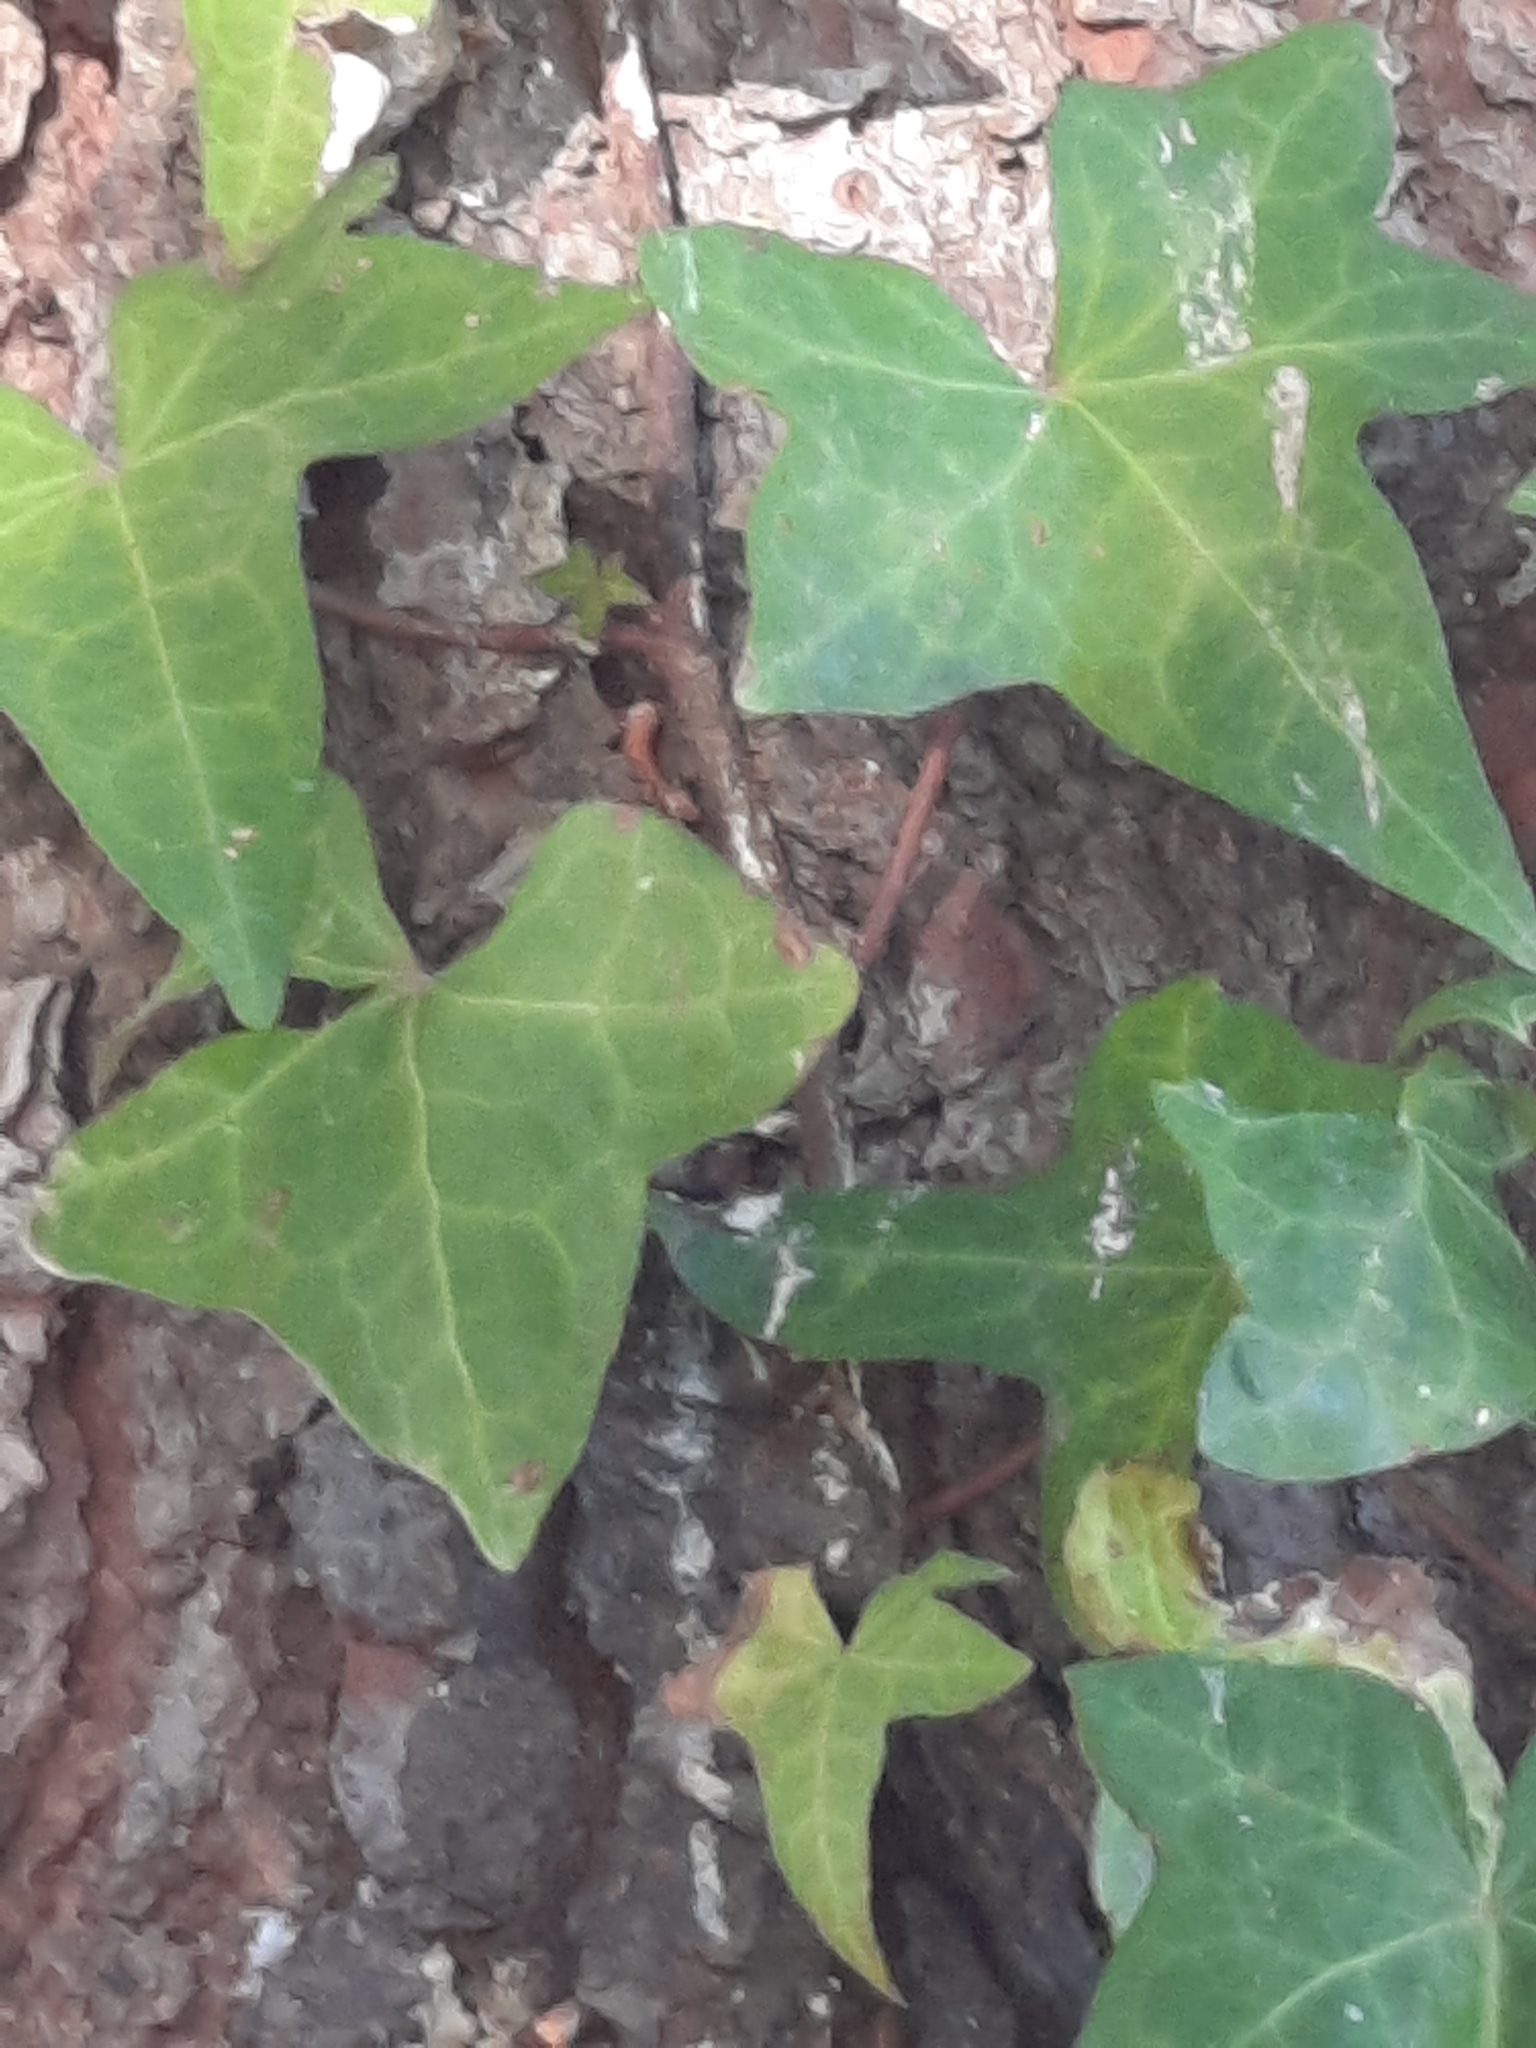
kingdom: Plantae
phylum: Tracheophyta
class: Magnoliopsida
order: Apiales
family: Araliaceae
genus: Hedera
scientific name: Hedera helix
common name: Ivy
